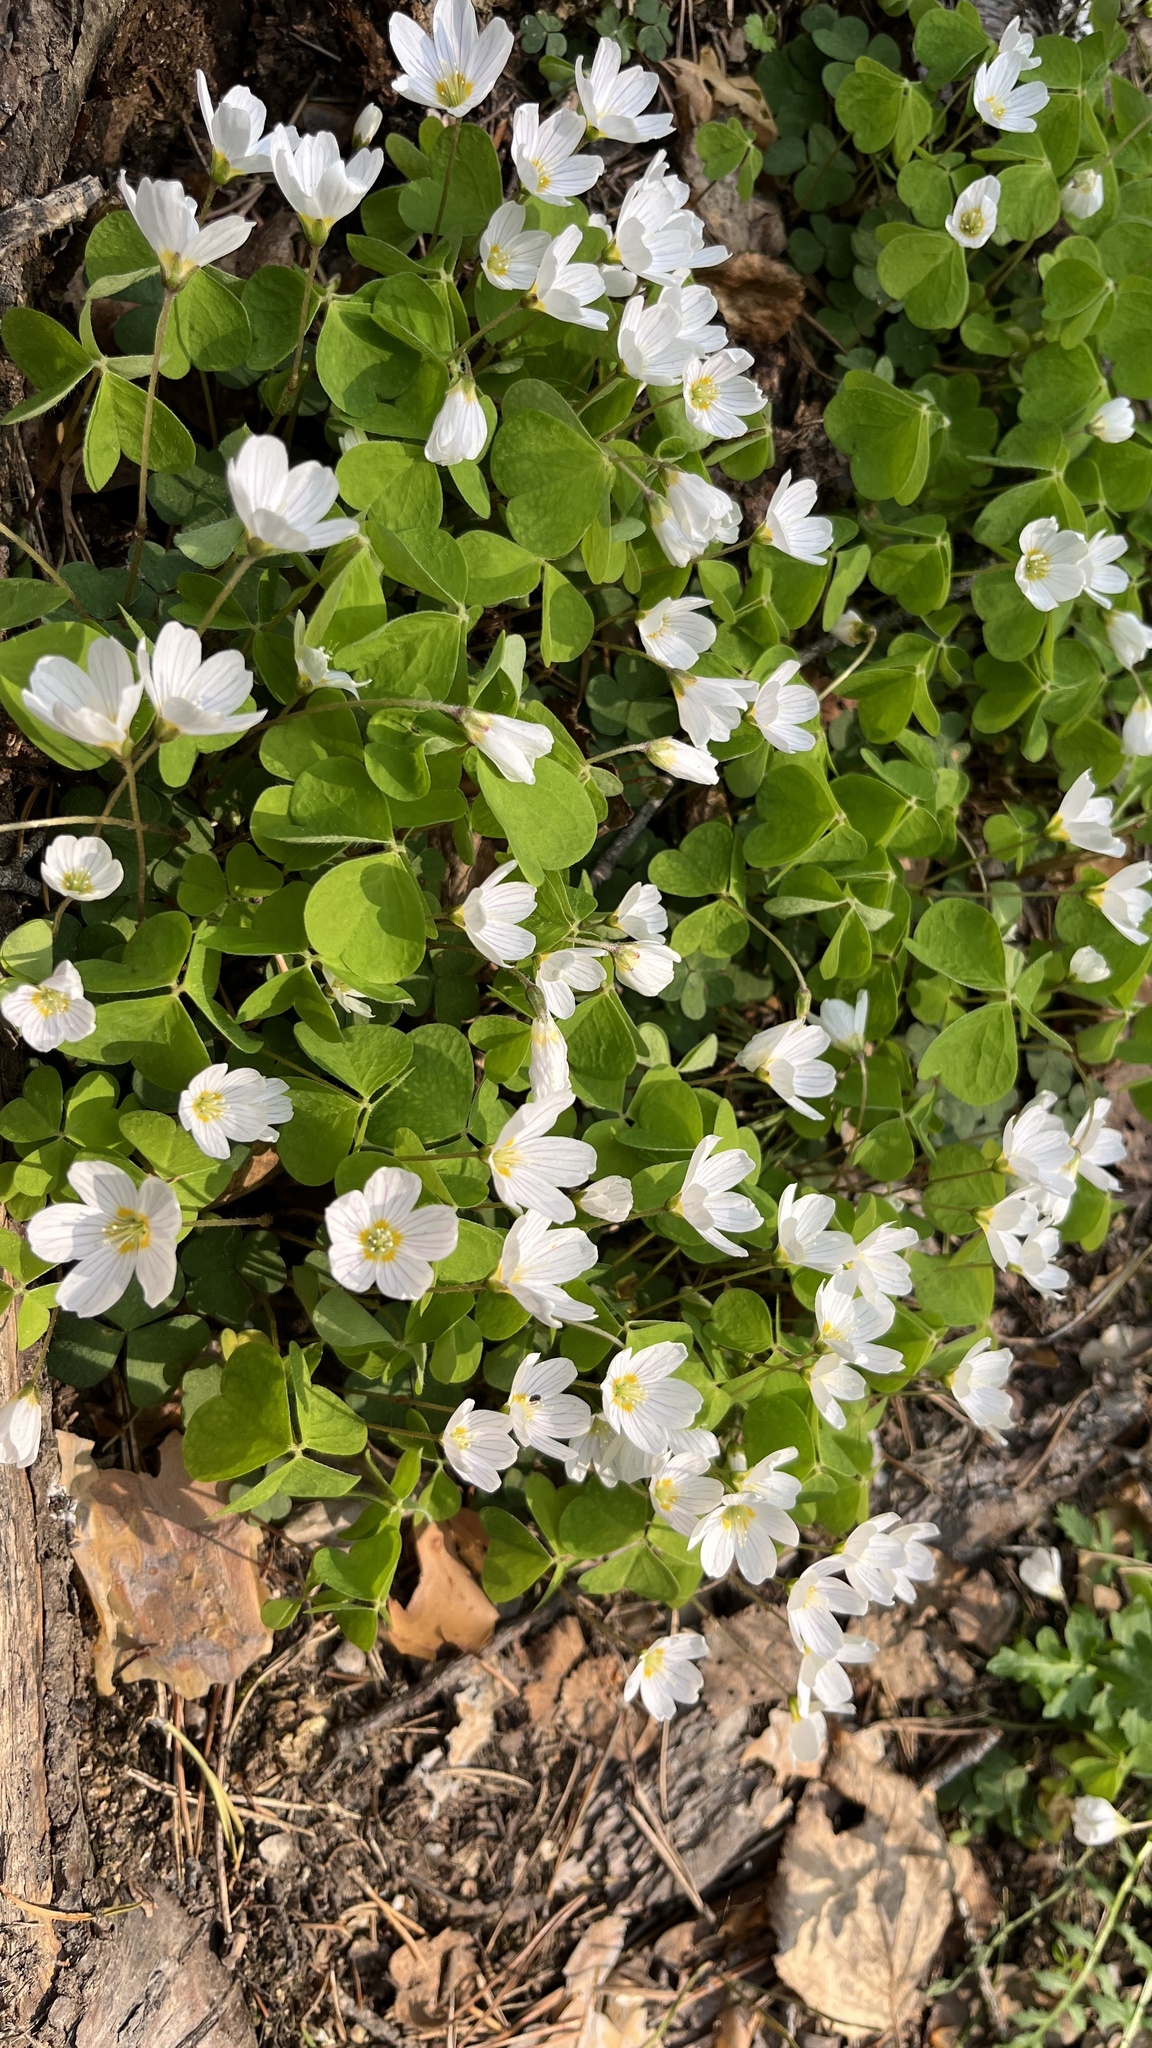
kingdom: Plantae
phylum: Tracheophyta
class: Magnoliopsida
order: Oxalidales
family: Oxalidaceae
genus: Oxalis
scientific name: Oxalis acetosella
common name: Wood-sorrel
